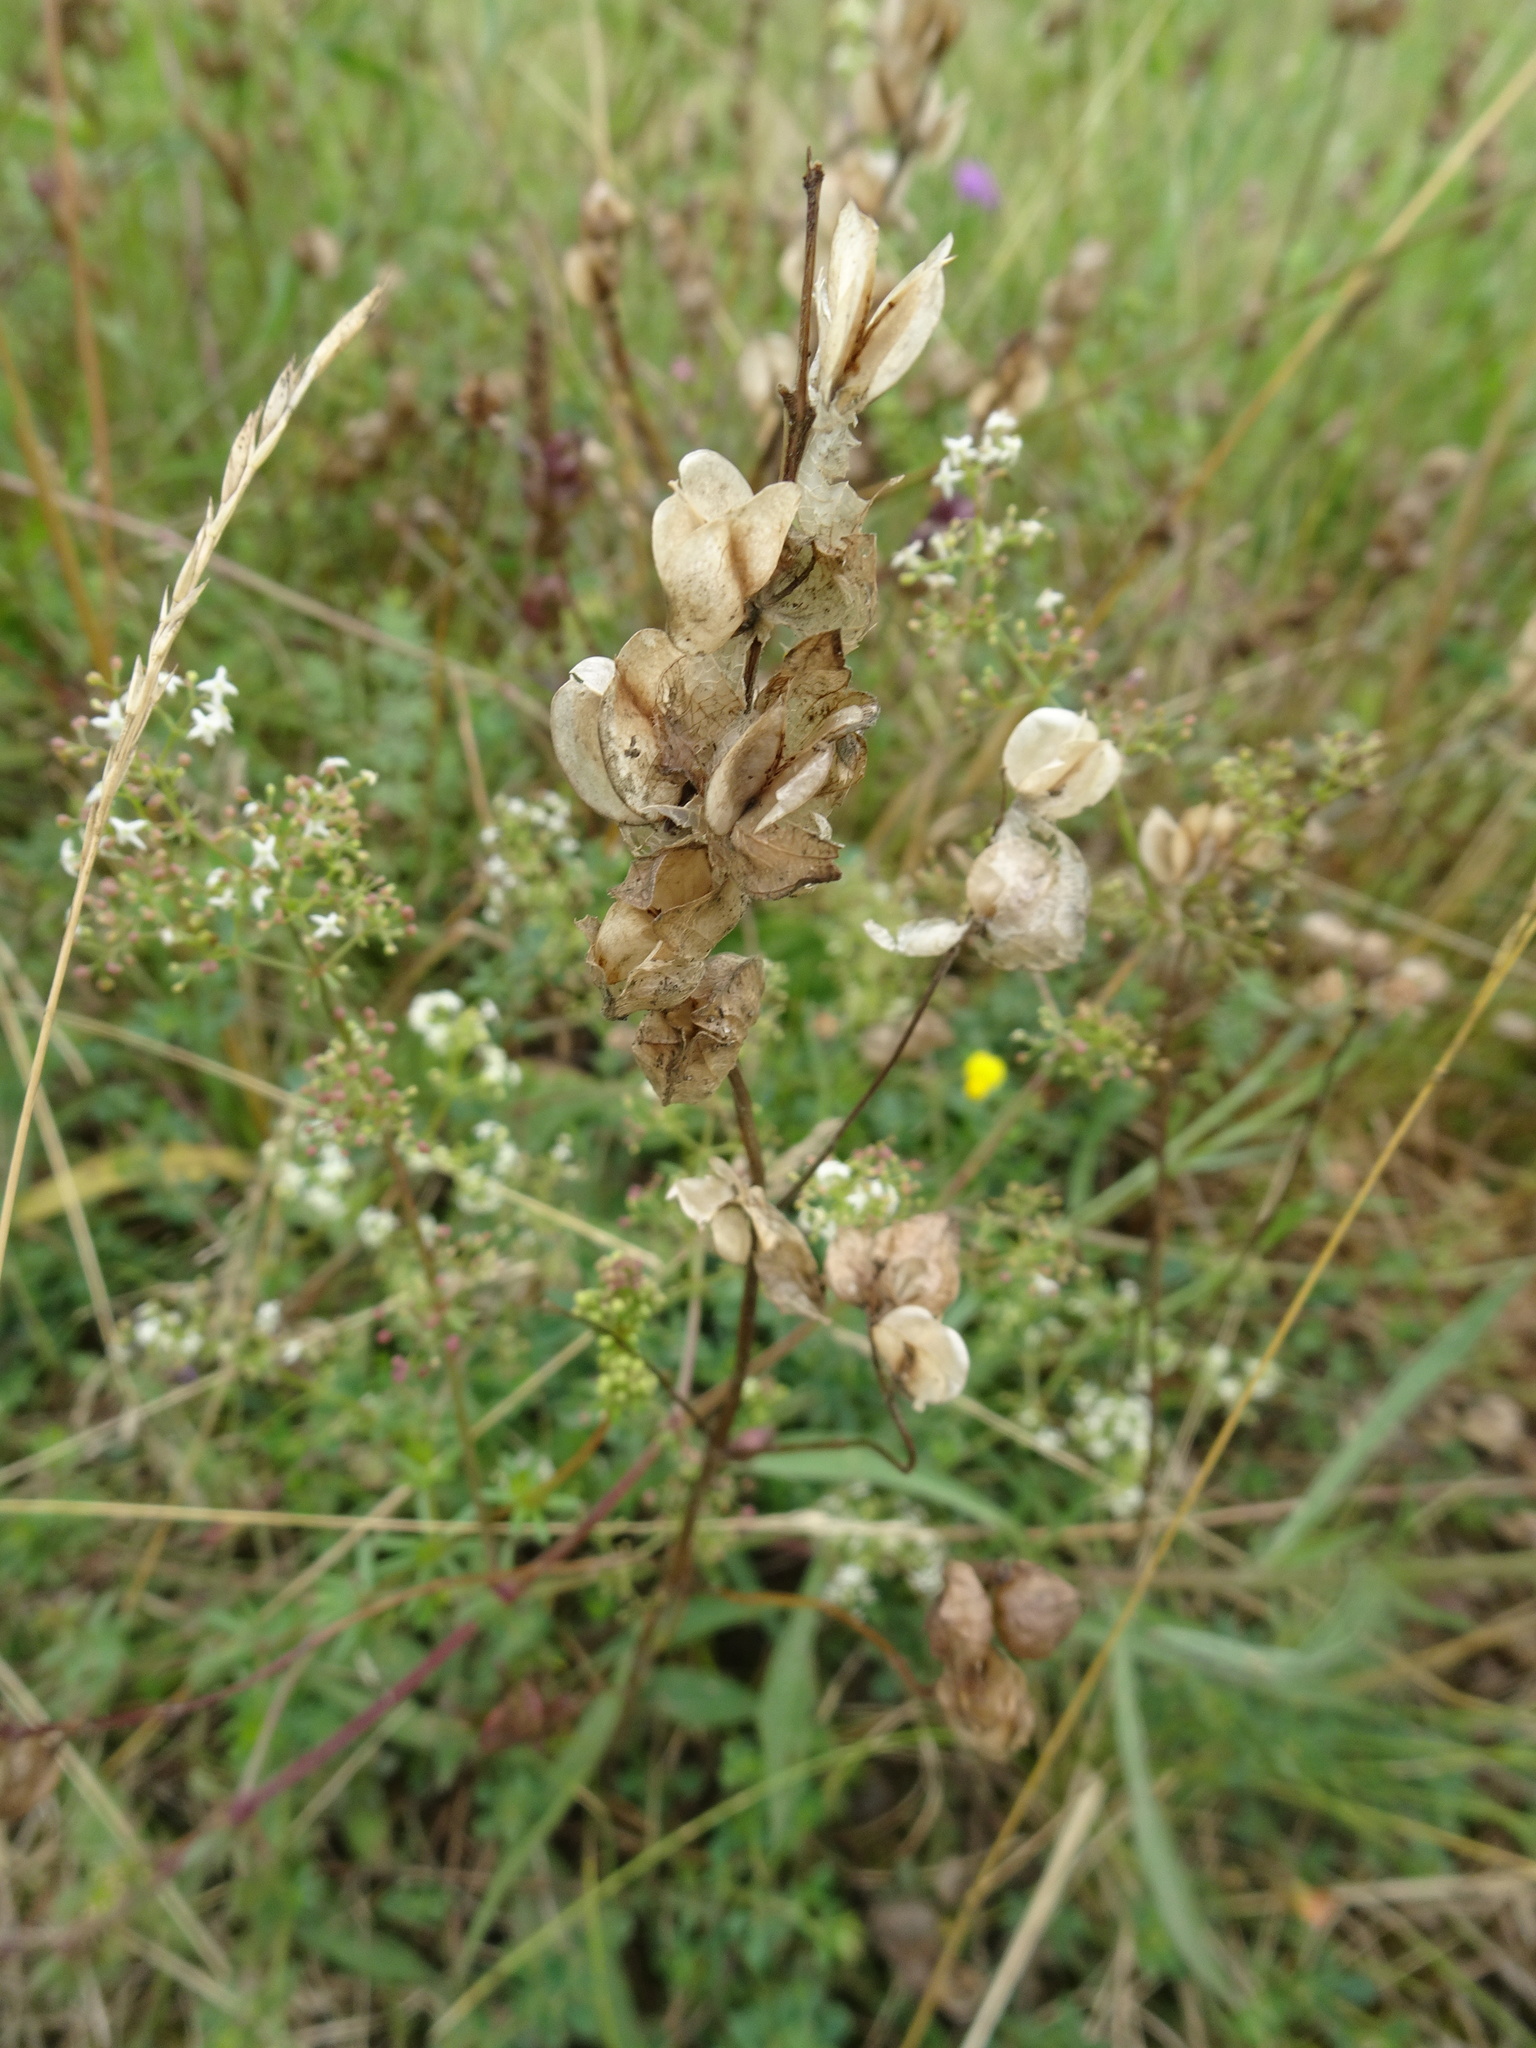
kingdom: Plantae
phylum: Tracheophyta
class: Magnoliopsida
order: Lamiales
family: Orobanchaceae
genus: Rhinanthus
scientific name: Rhinanthus minor
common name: Yellow-rattle
